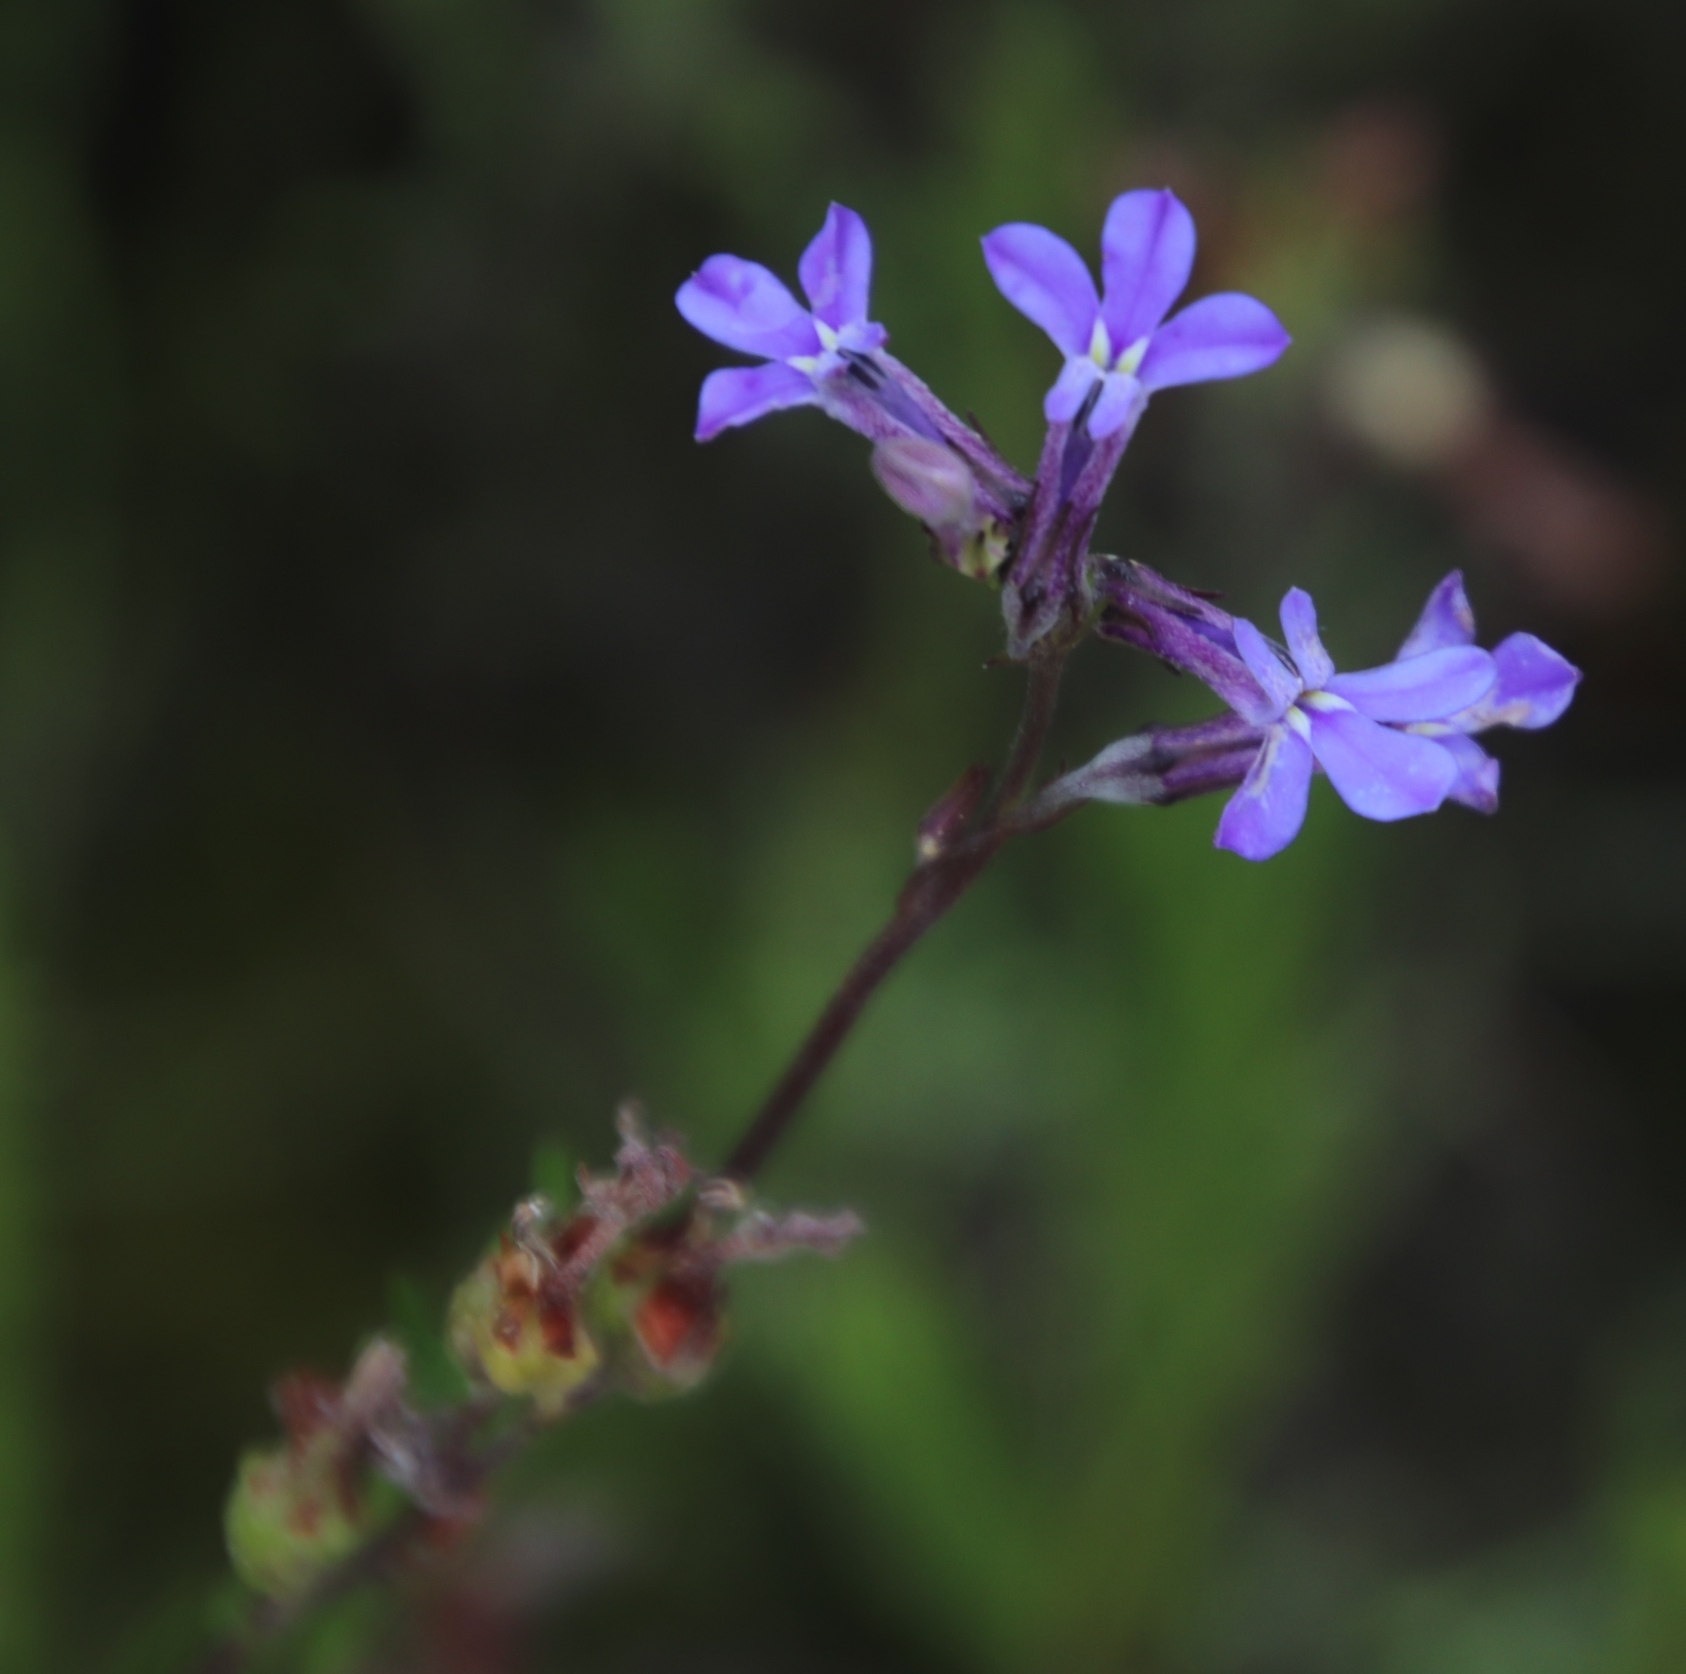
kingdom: Plantae
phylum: Tracheophyta
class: Magnoliopsida
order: Asterales
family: Campanulaceae
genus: Lobelia
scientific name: Lobelia pinifolia
